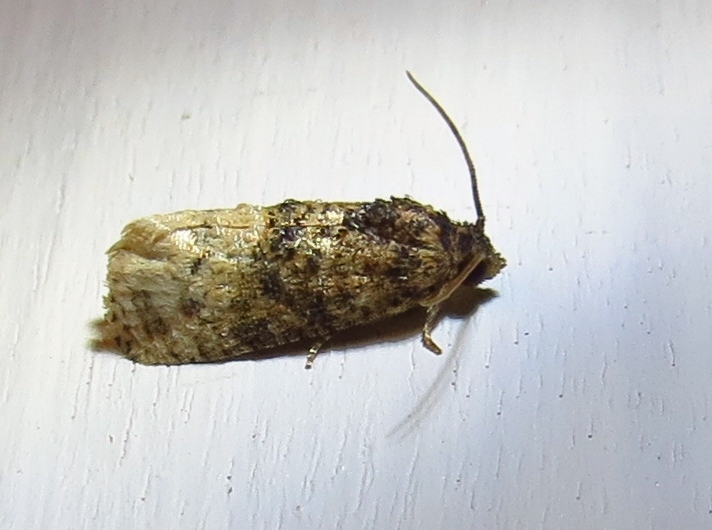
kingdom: Animalia
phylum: Arthropoda
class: Insecta
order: Lepidoptera
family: Tortricidae
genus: Ecdytolopha
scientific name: Ecdytolopha mana
